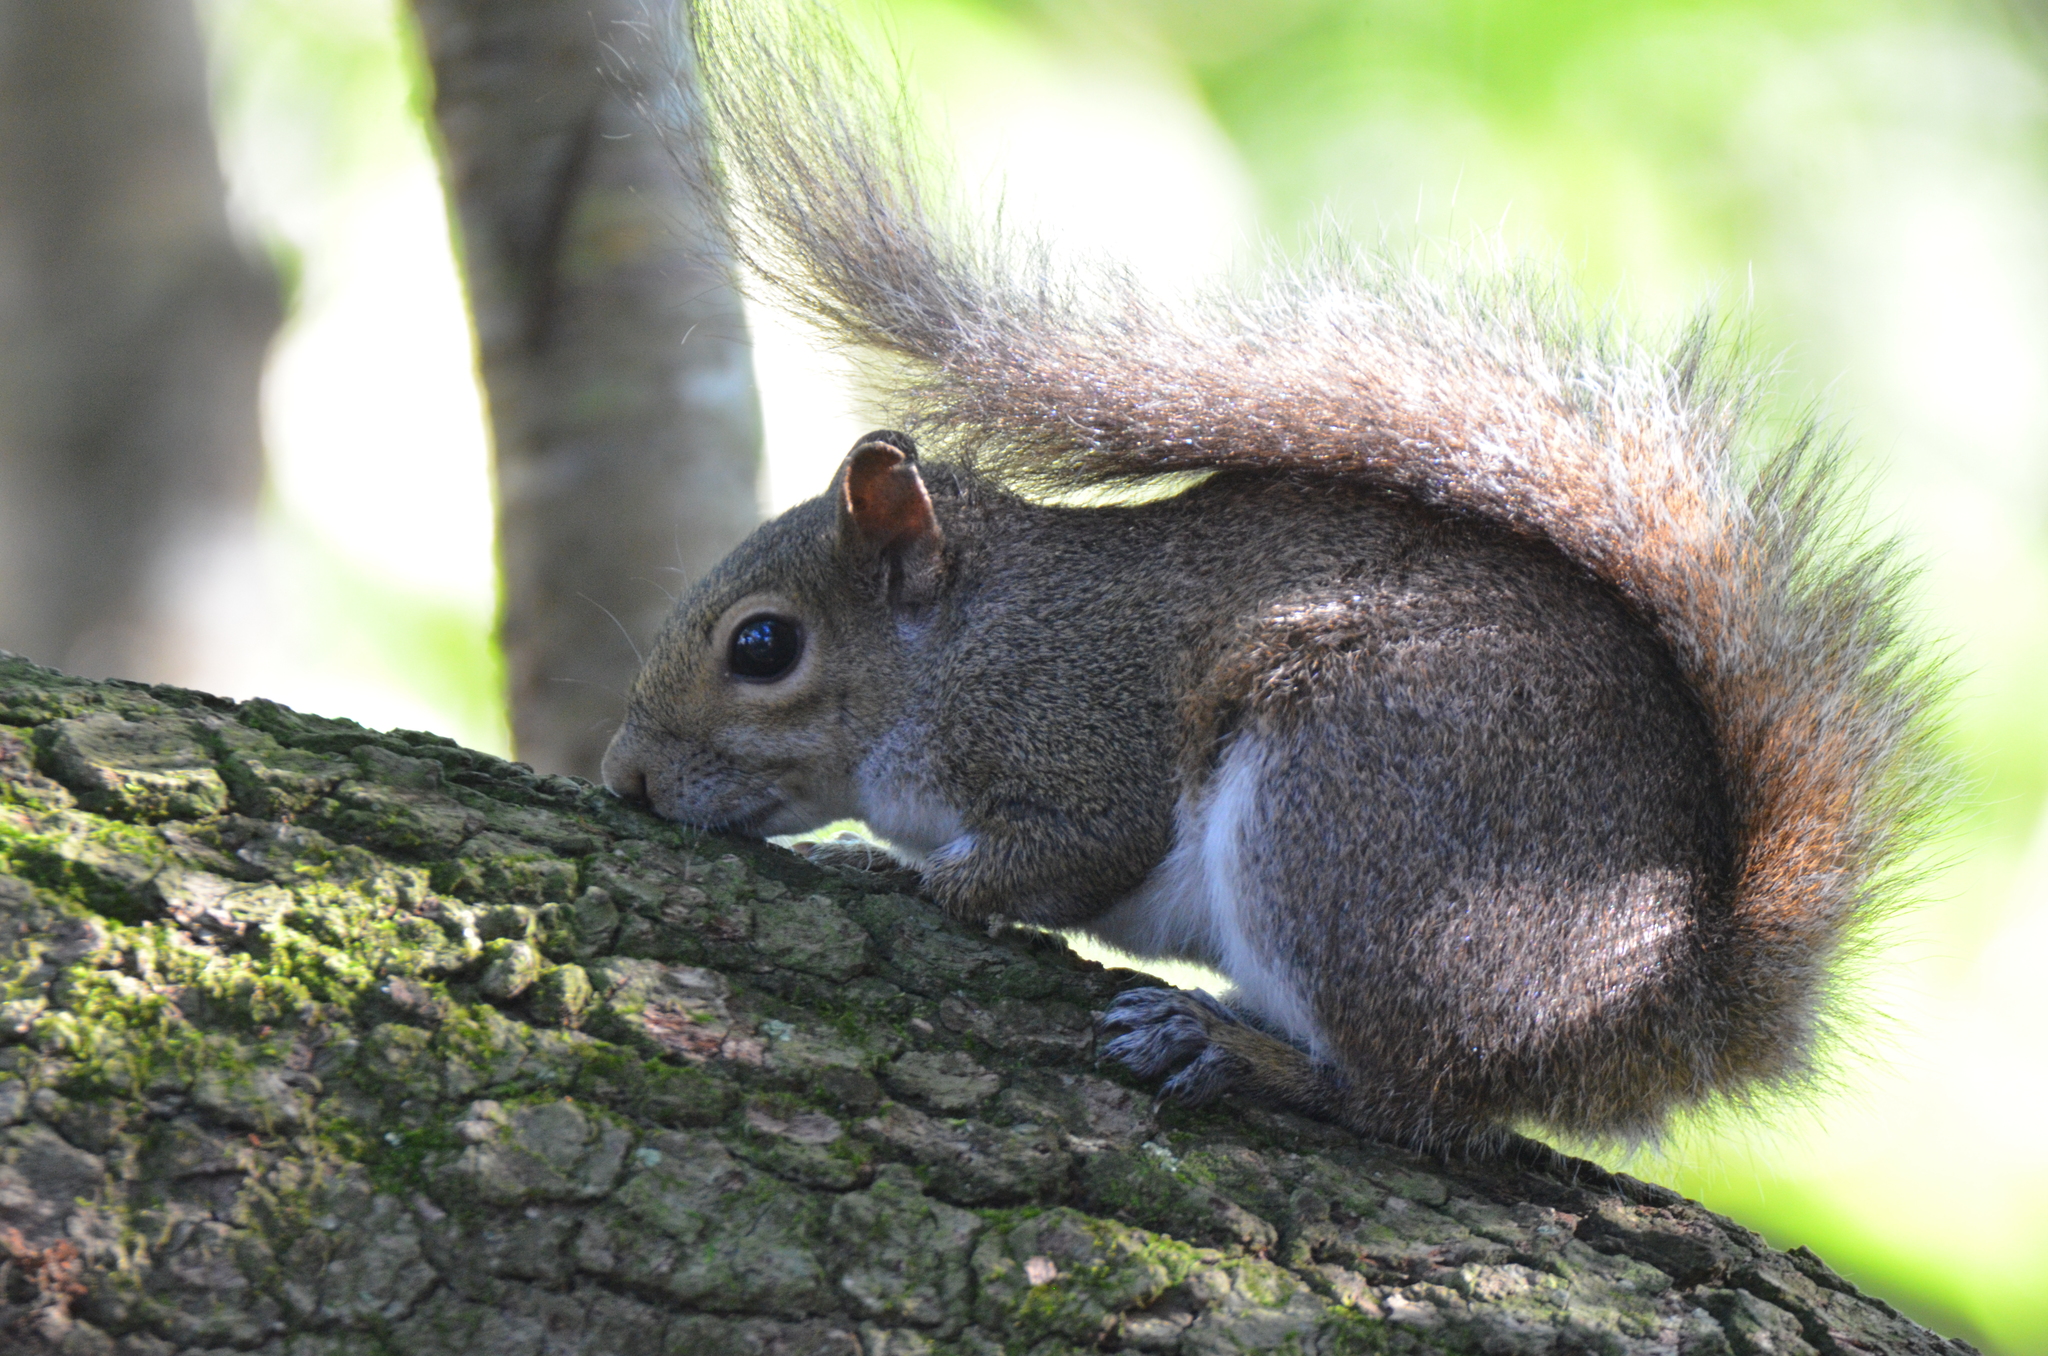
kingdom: Animalia
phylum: Chordata
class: Mammalia
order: Rodentia
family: Sciuridae
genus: Sciurus
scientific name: Sciurus carolinensis
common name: Eastern gray squirrel
